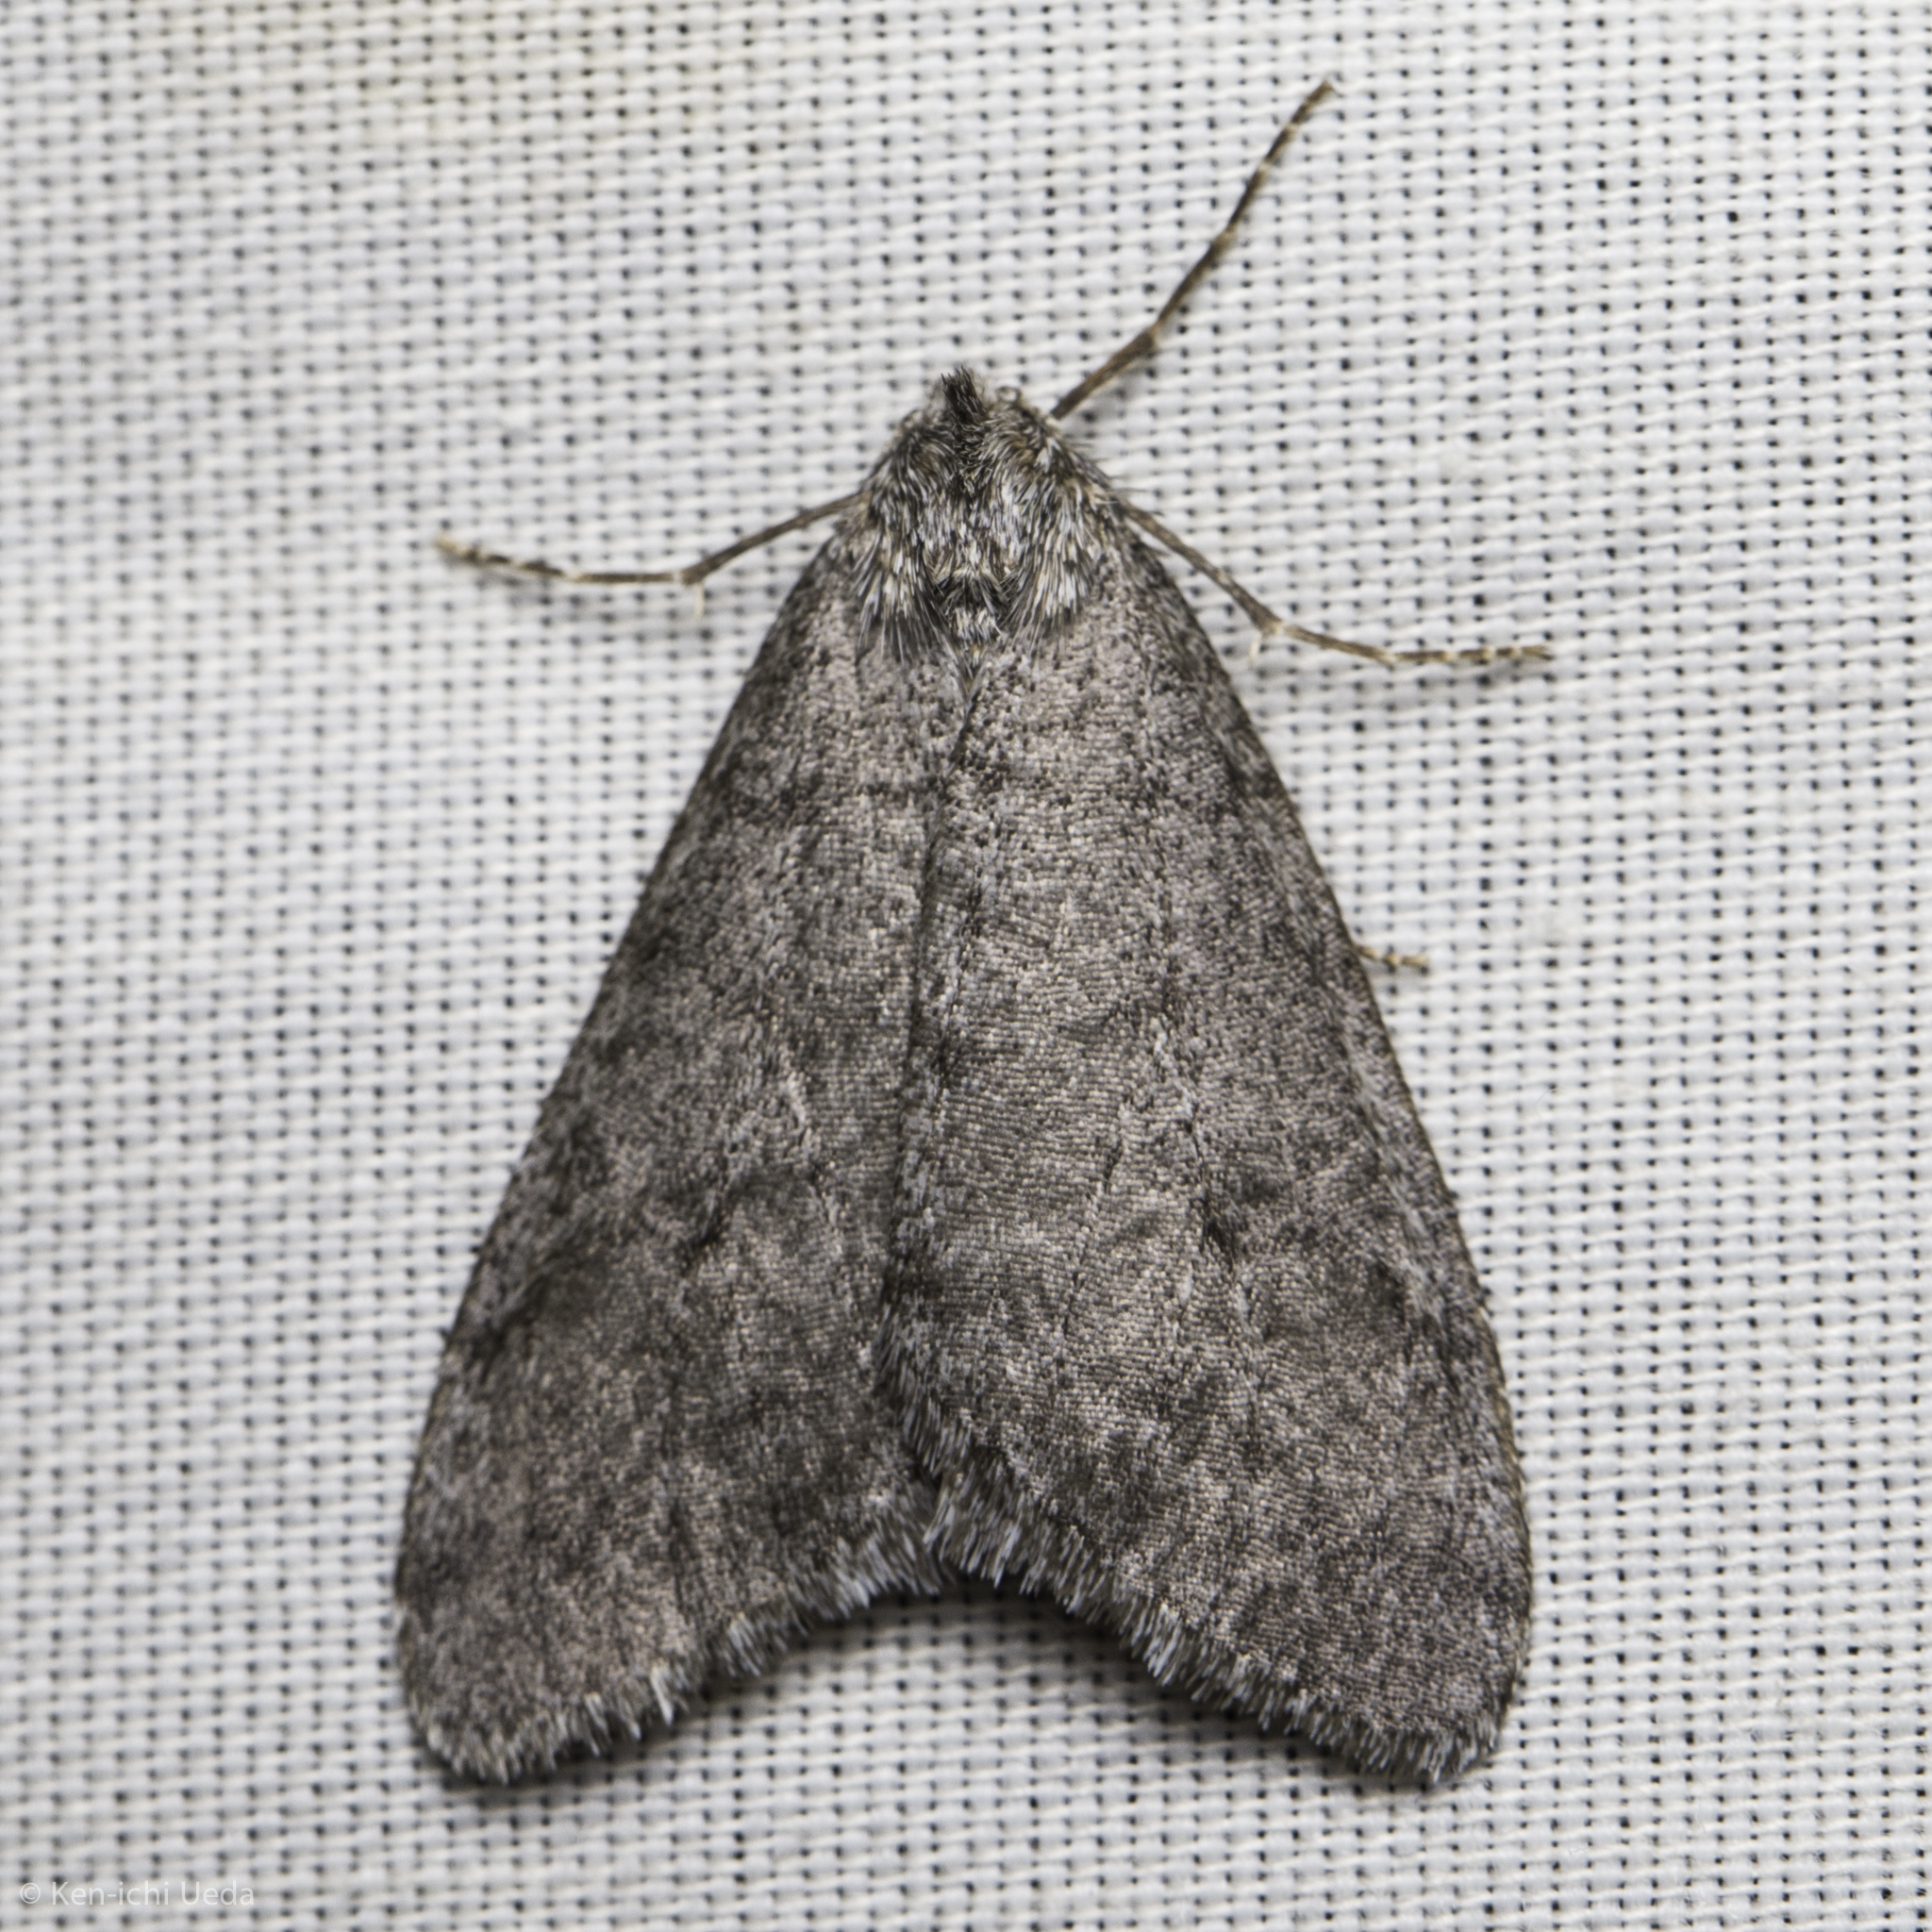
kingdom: Animalia
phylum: Arthropoda
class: Insecta
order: Lepidoptera
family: Geometridae
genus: Phigalia
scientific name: Phigalia plumogeraria
